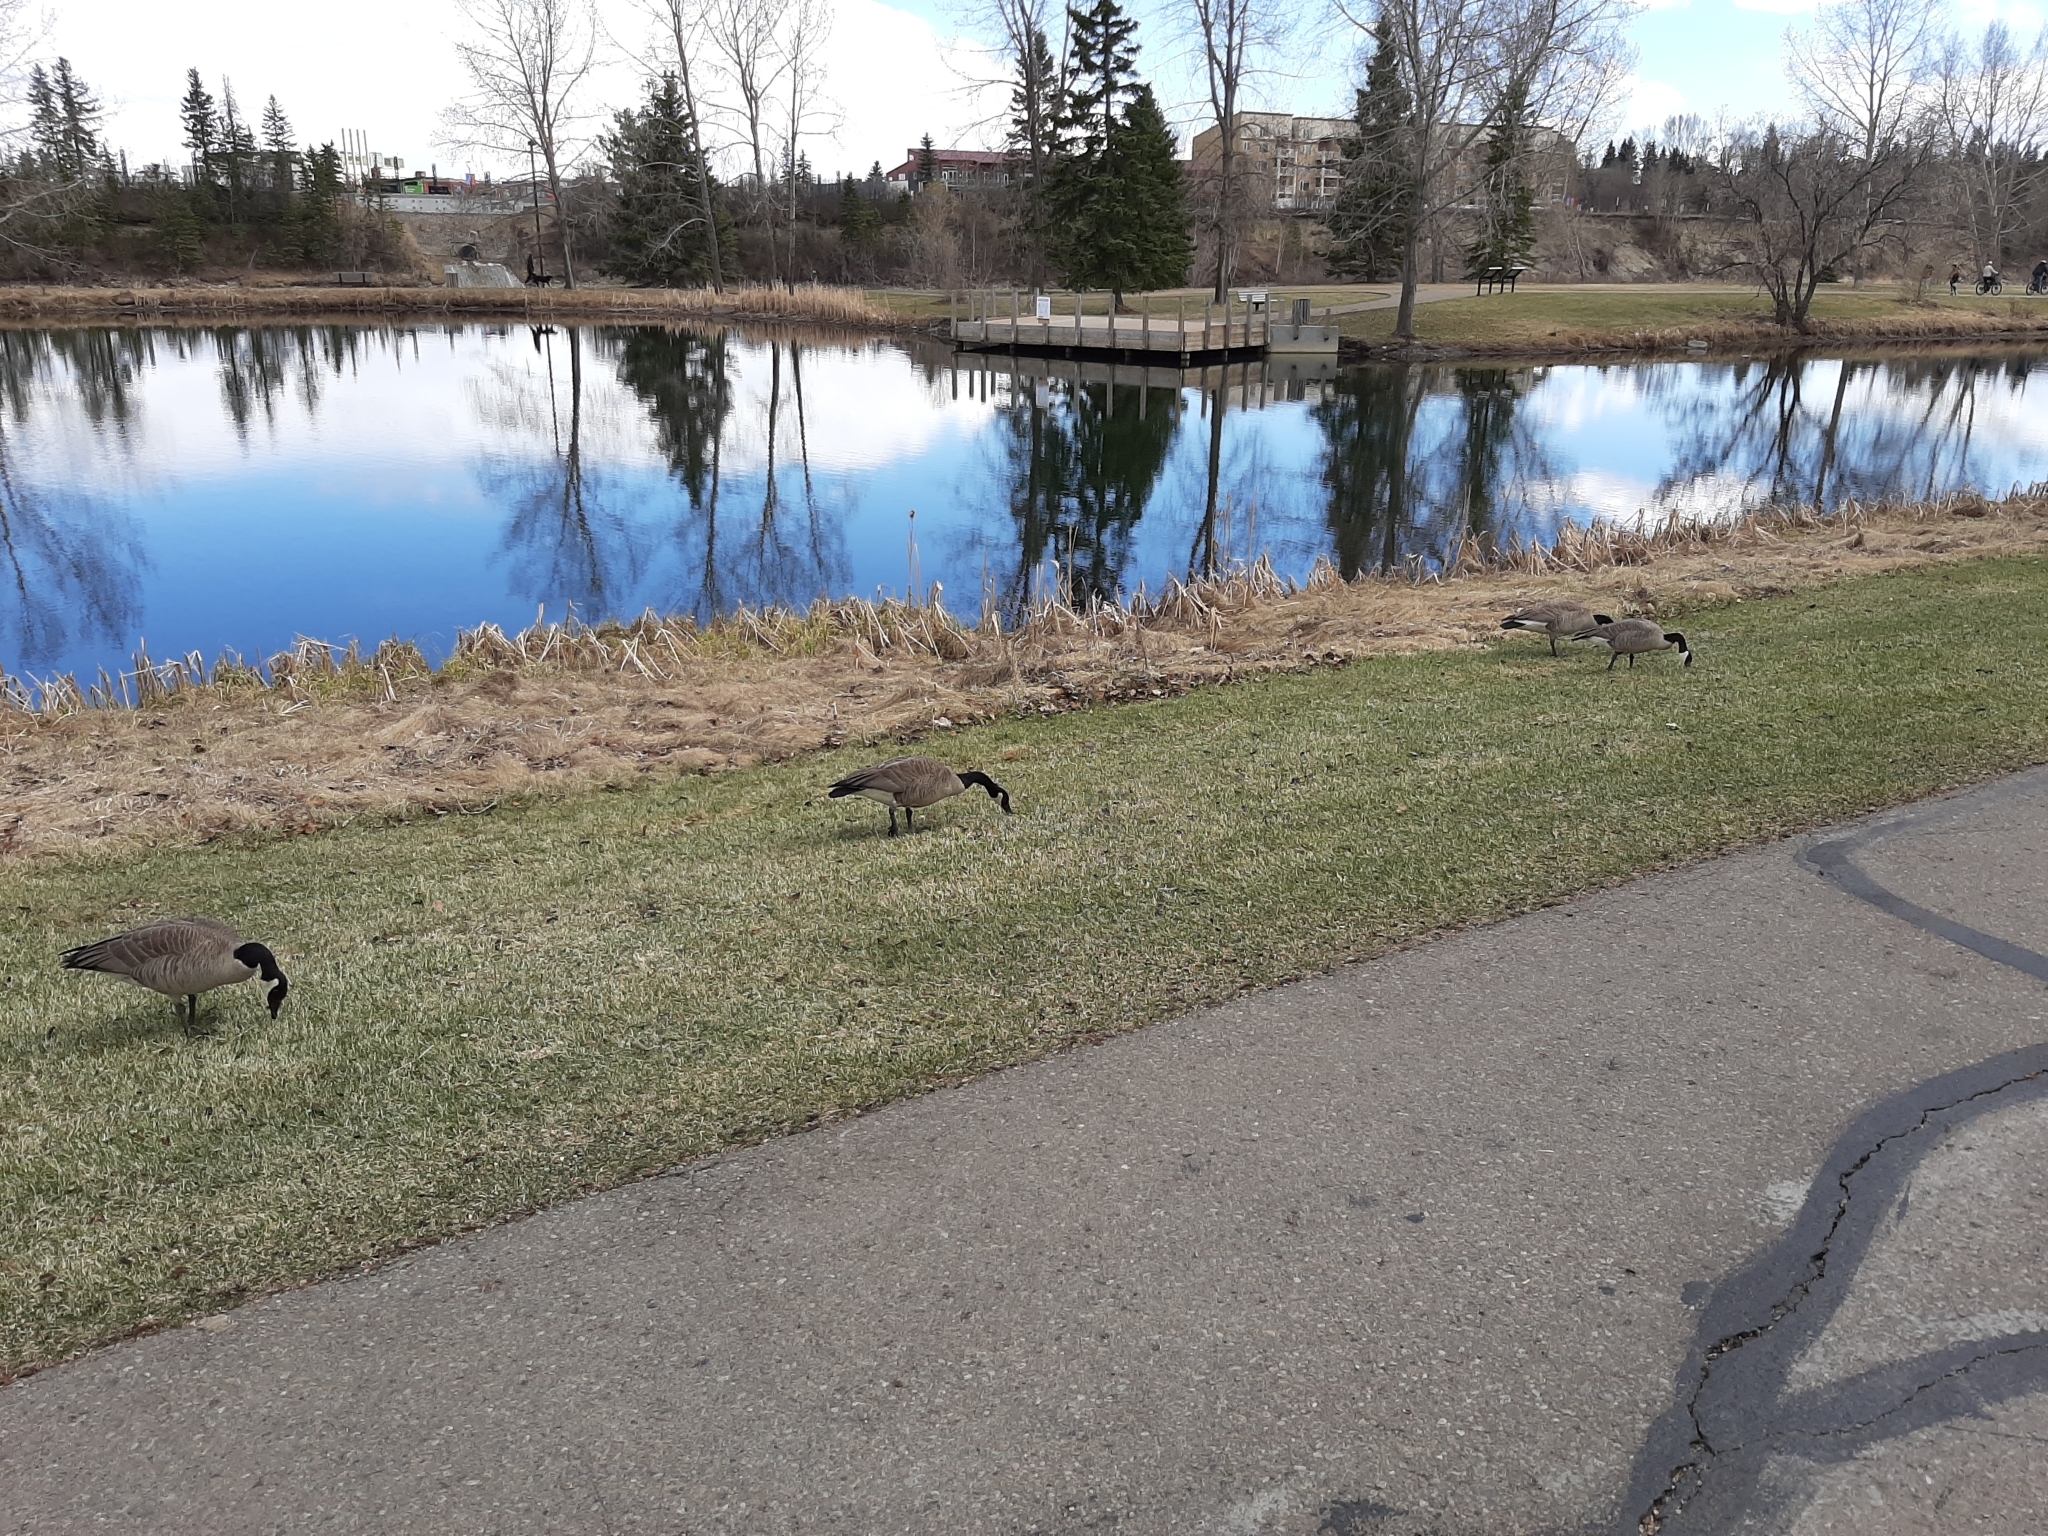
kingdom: Animalia
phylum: Chordata
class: Aves
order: Anseriformes
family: Anatidae
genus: Branta
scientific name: Branta canadensis
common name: Canada goose
